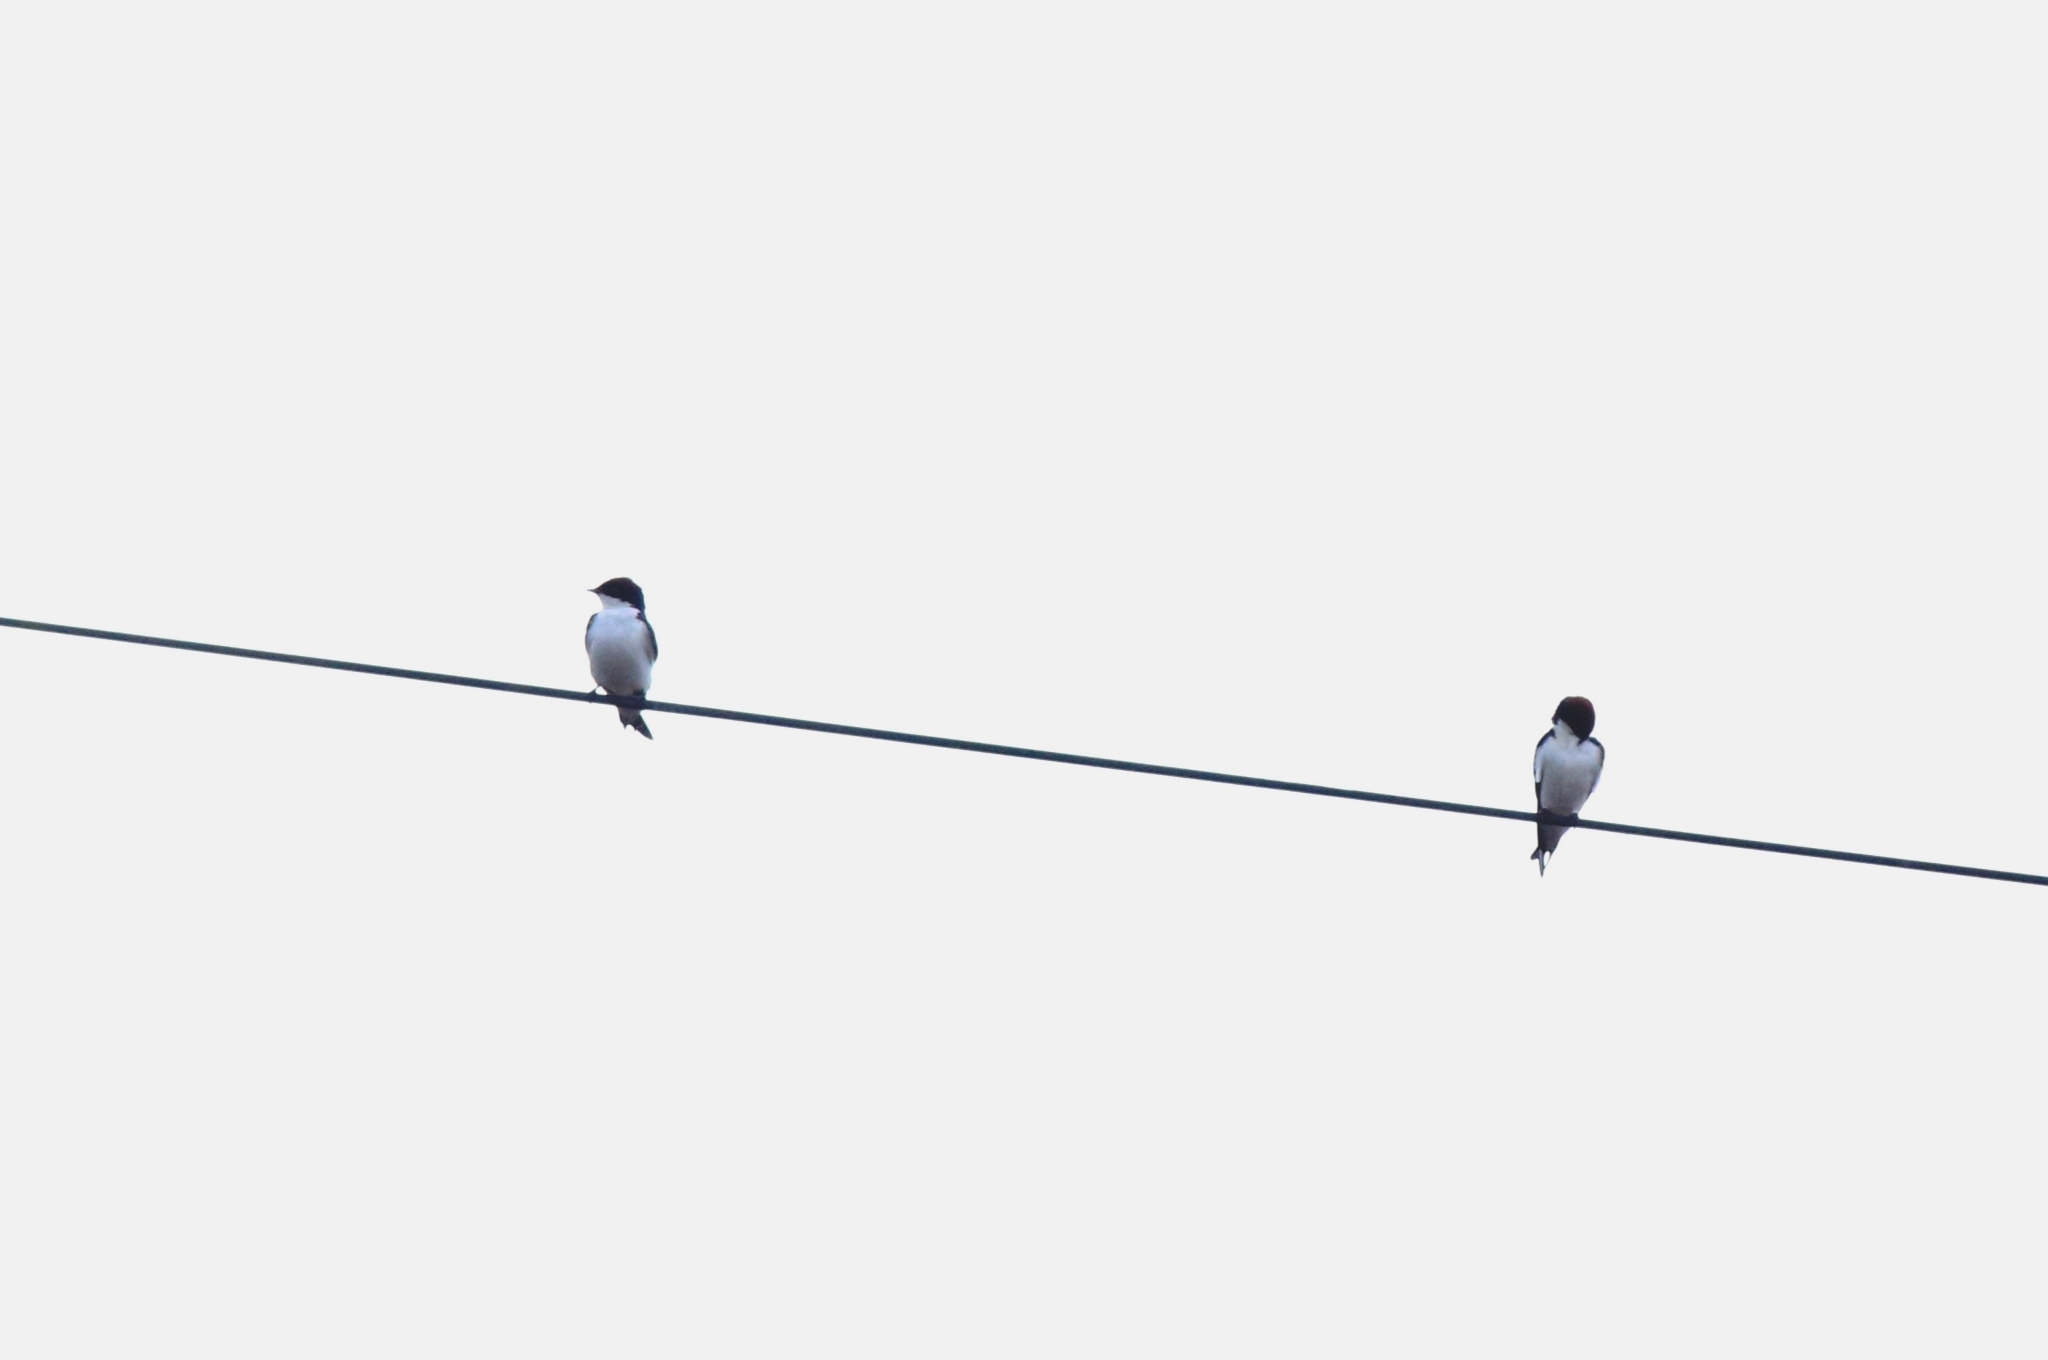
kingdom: Animalia
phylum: Chordata
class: Aves
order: Passeriformes
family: Hirundinidae
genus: Hirundo
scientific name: Hirundo smithii
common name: Wire-tailed swallow
